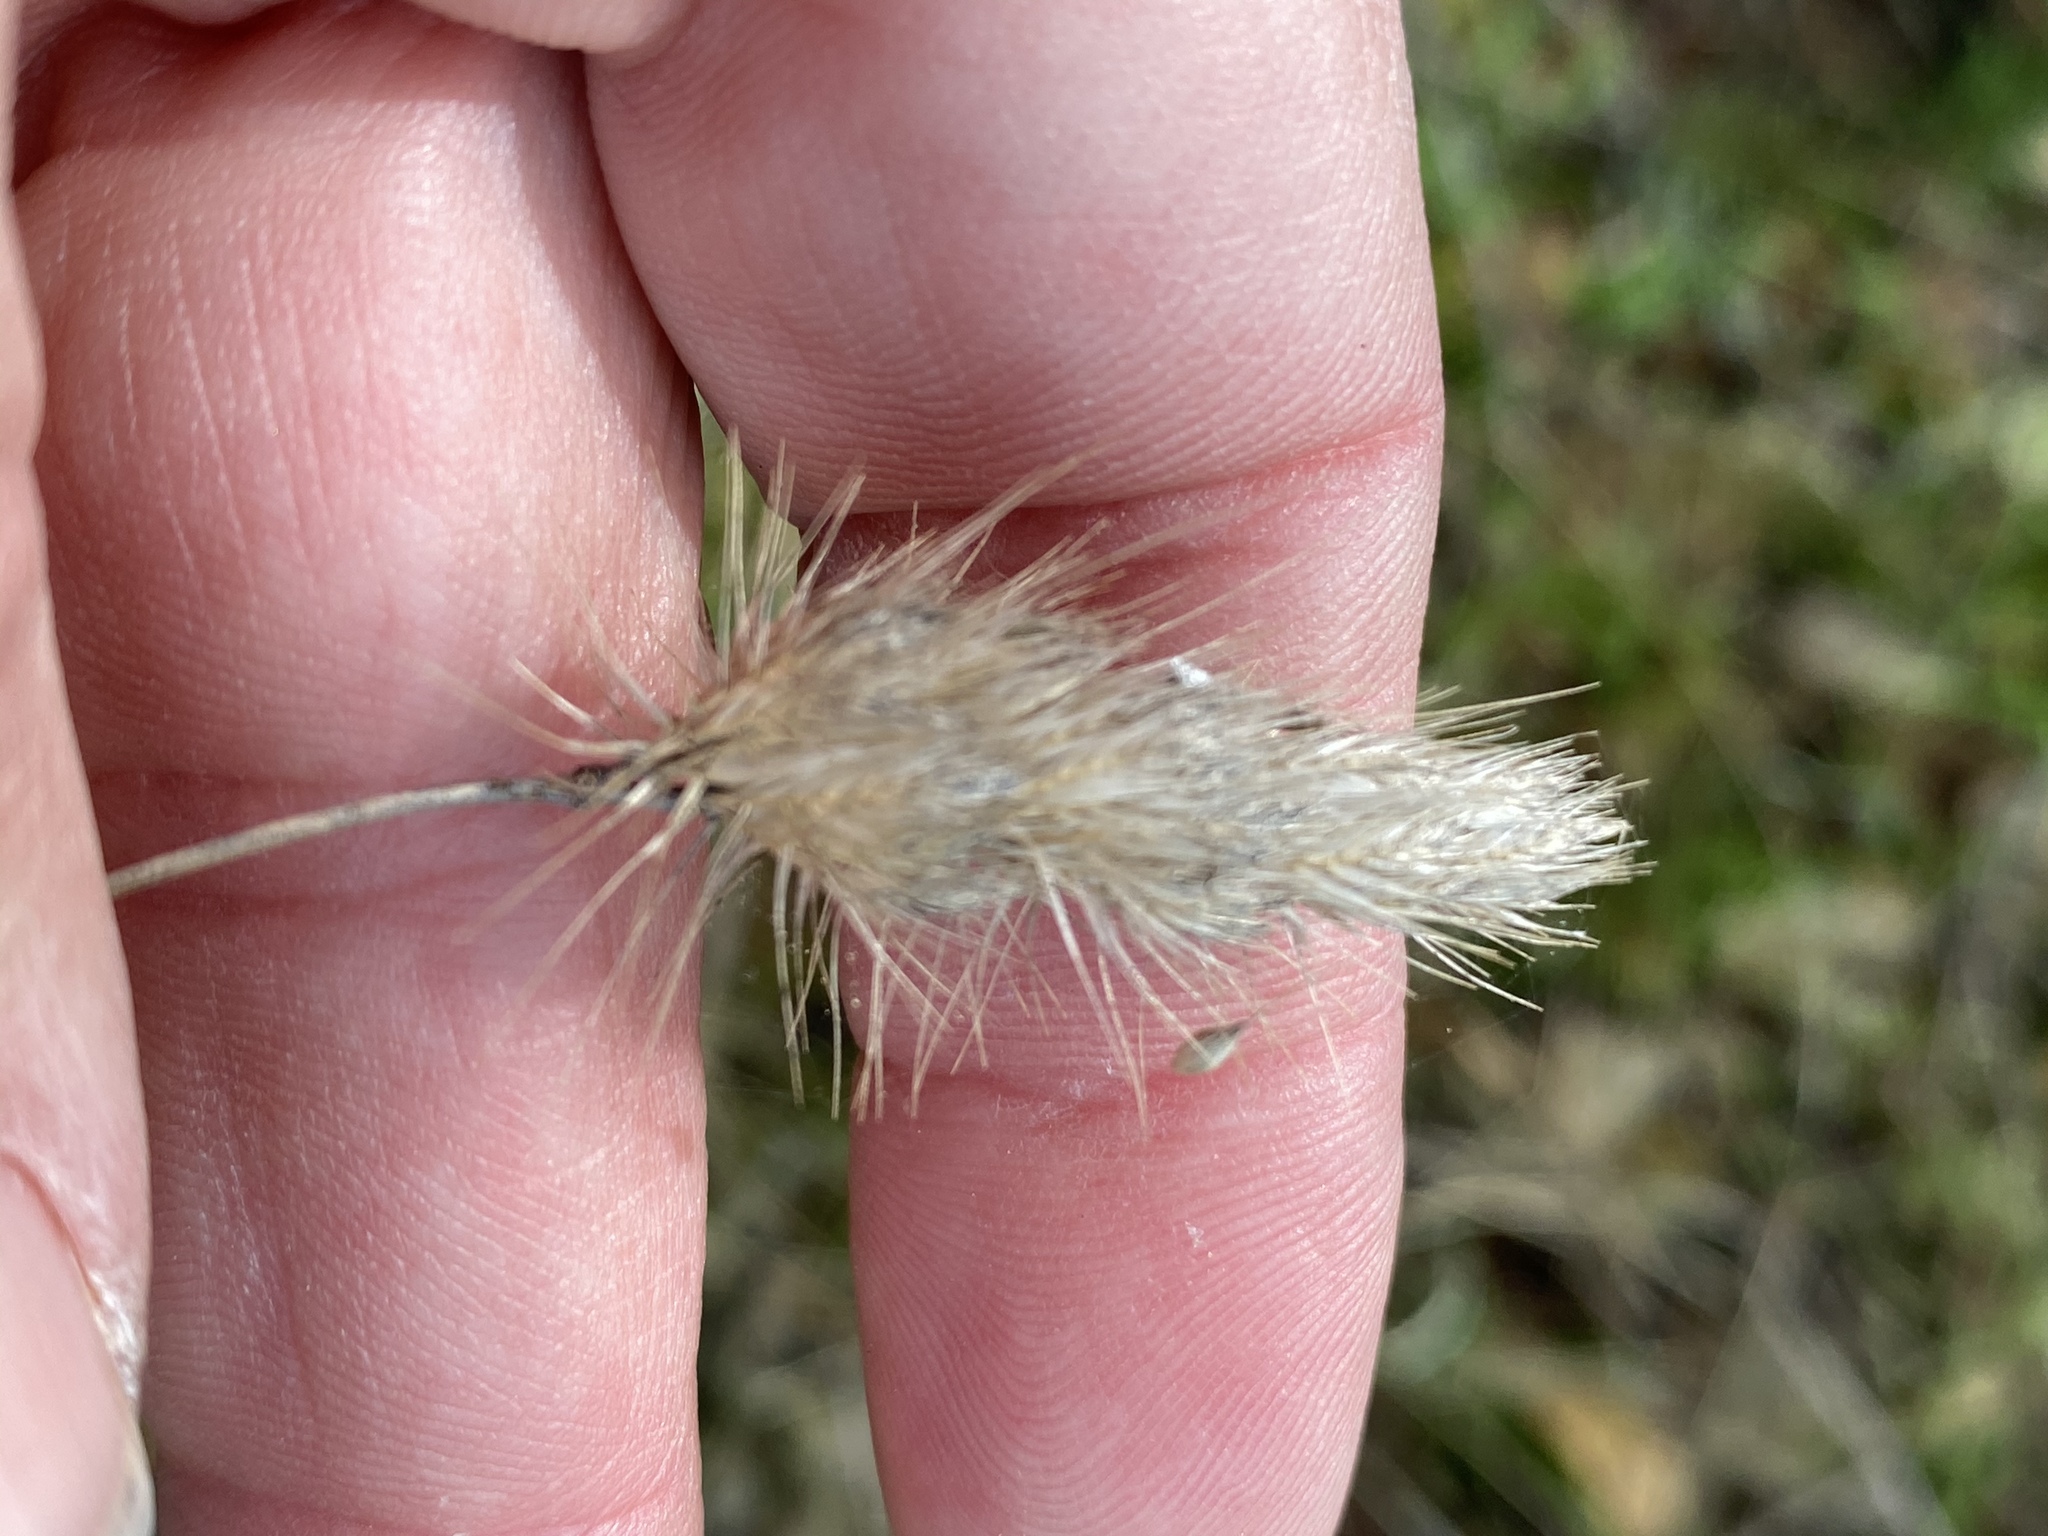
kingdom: Plantae
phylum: Tracheophyta
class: Liliopsida
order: Poales
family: Poaceae
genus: Cynosurus
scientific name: Cynosurus echinatus
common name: Rough dog's-tail
